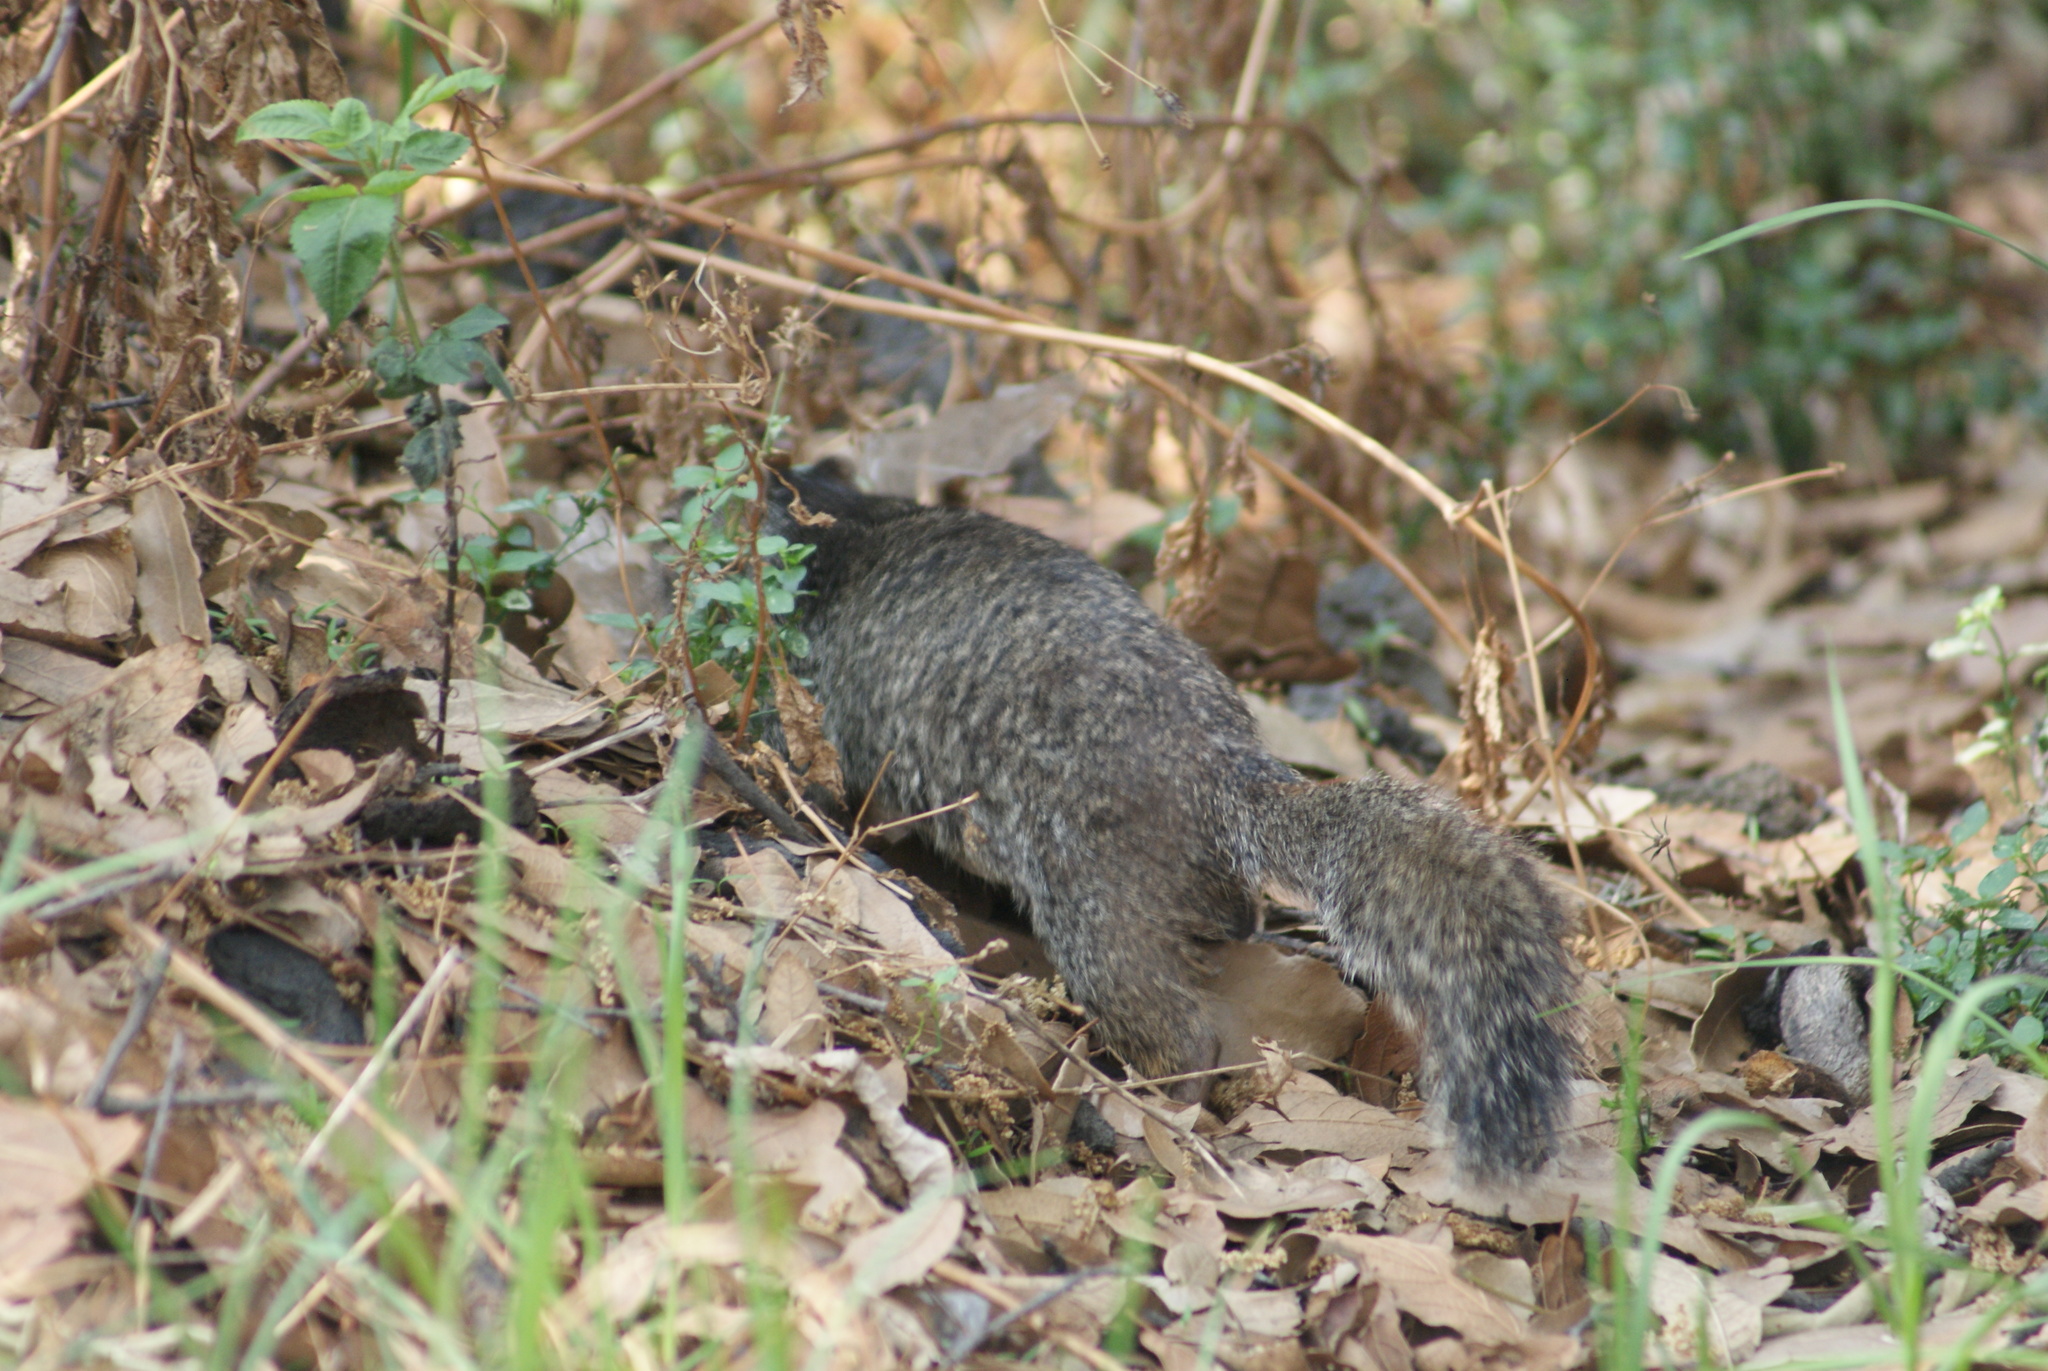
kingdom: Animalia
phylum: Chordata
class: Mammalia
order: Rodentia
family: Sciuridae
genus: Otospermophilus
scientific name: Otospermophilus variegatus
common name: Rock squirrel
